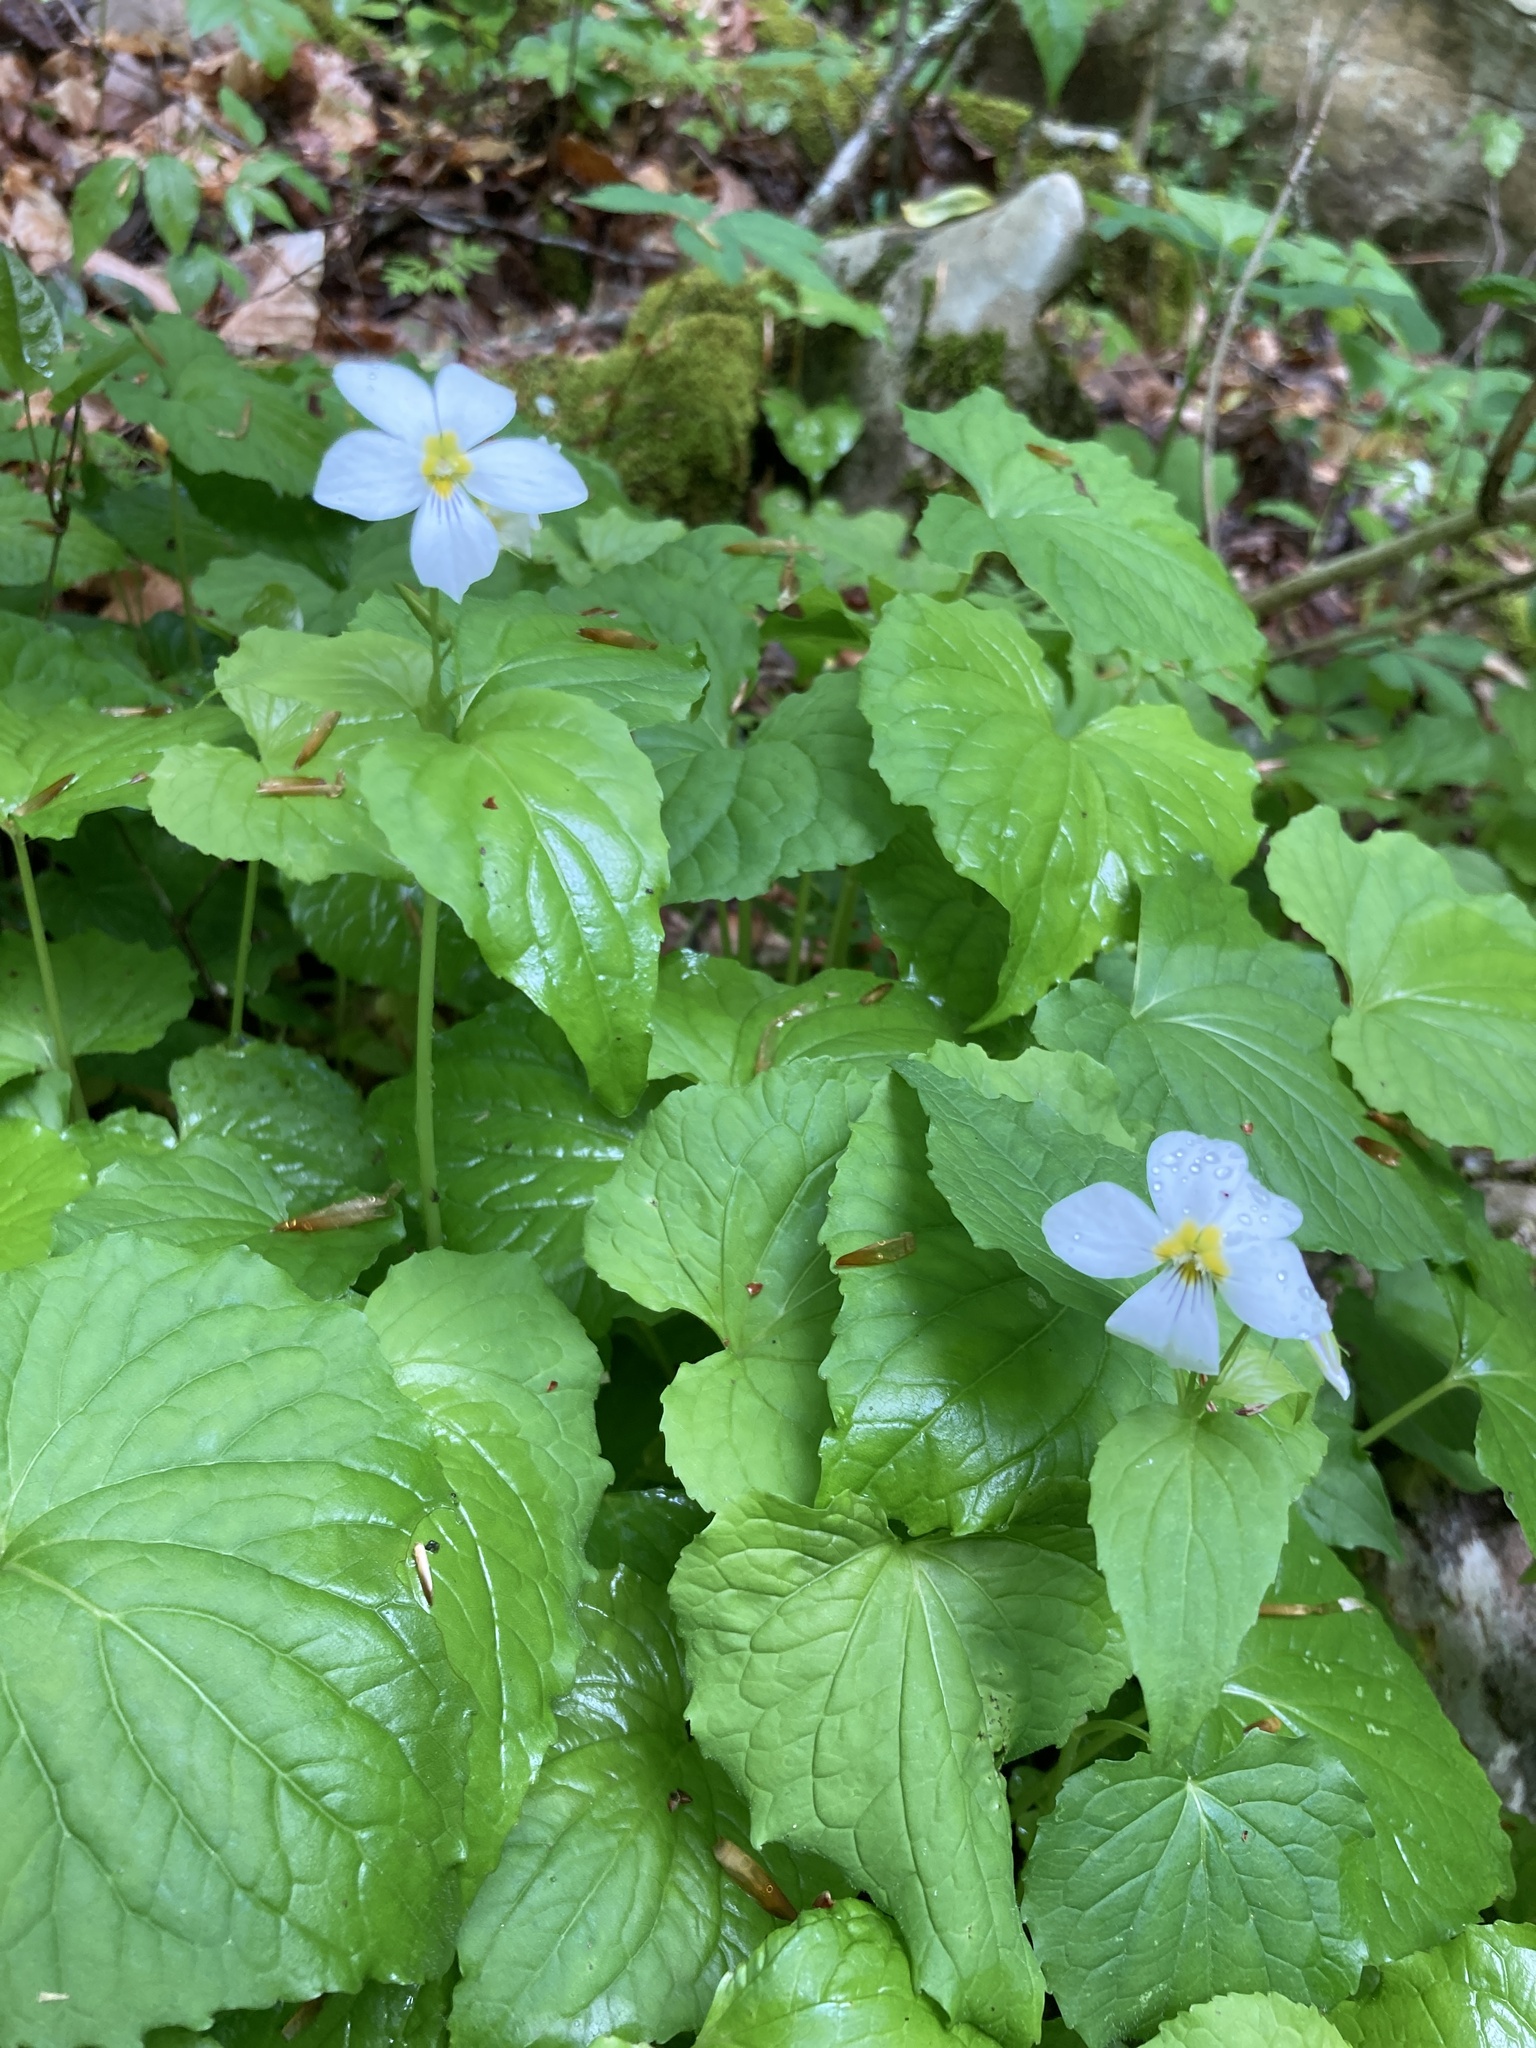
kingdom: Plantae
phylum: Tracheophyta
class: Magnoliopsida
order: Malpighiales
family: Violaceae
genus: Viola
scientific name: Viola canadensis
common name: Canada violet
